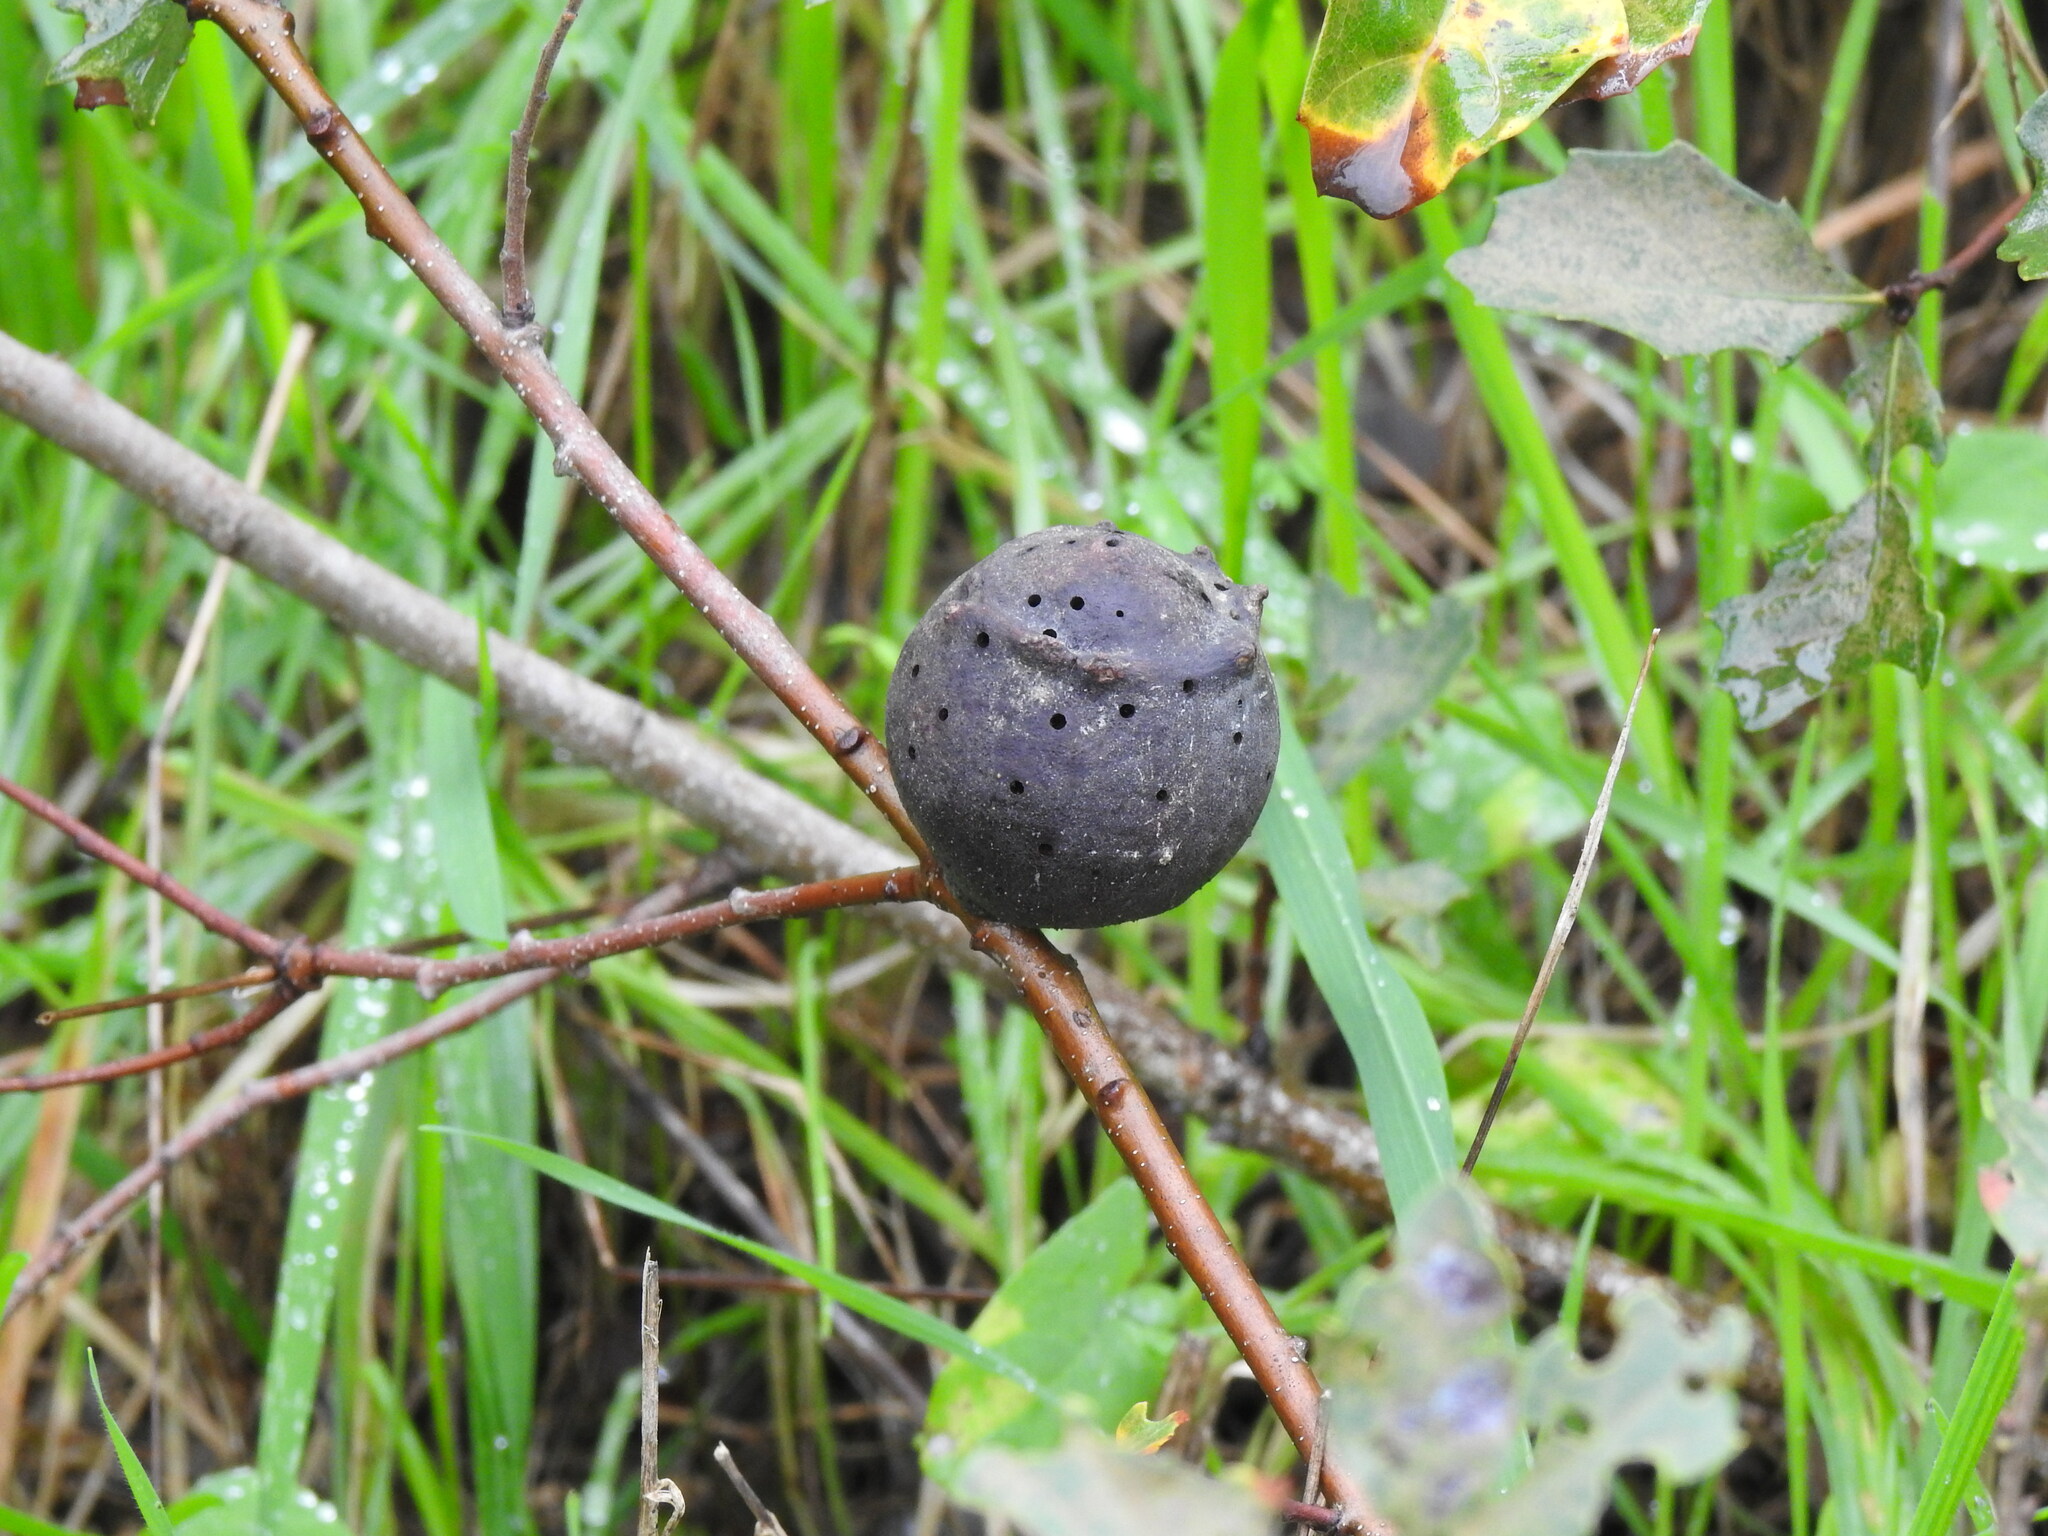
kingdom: Animalia
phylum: Arthropoda
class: Insecta
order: Hymenoptera
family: Cynipidae
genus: Andricus
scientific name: Andricus quercustozae
